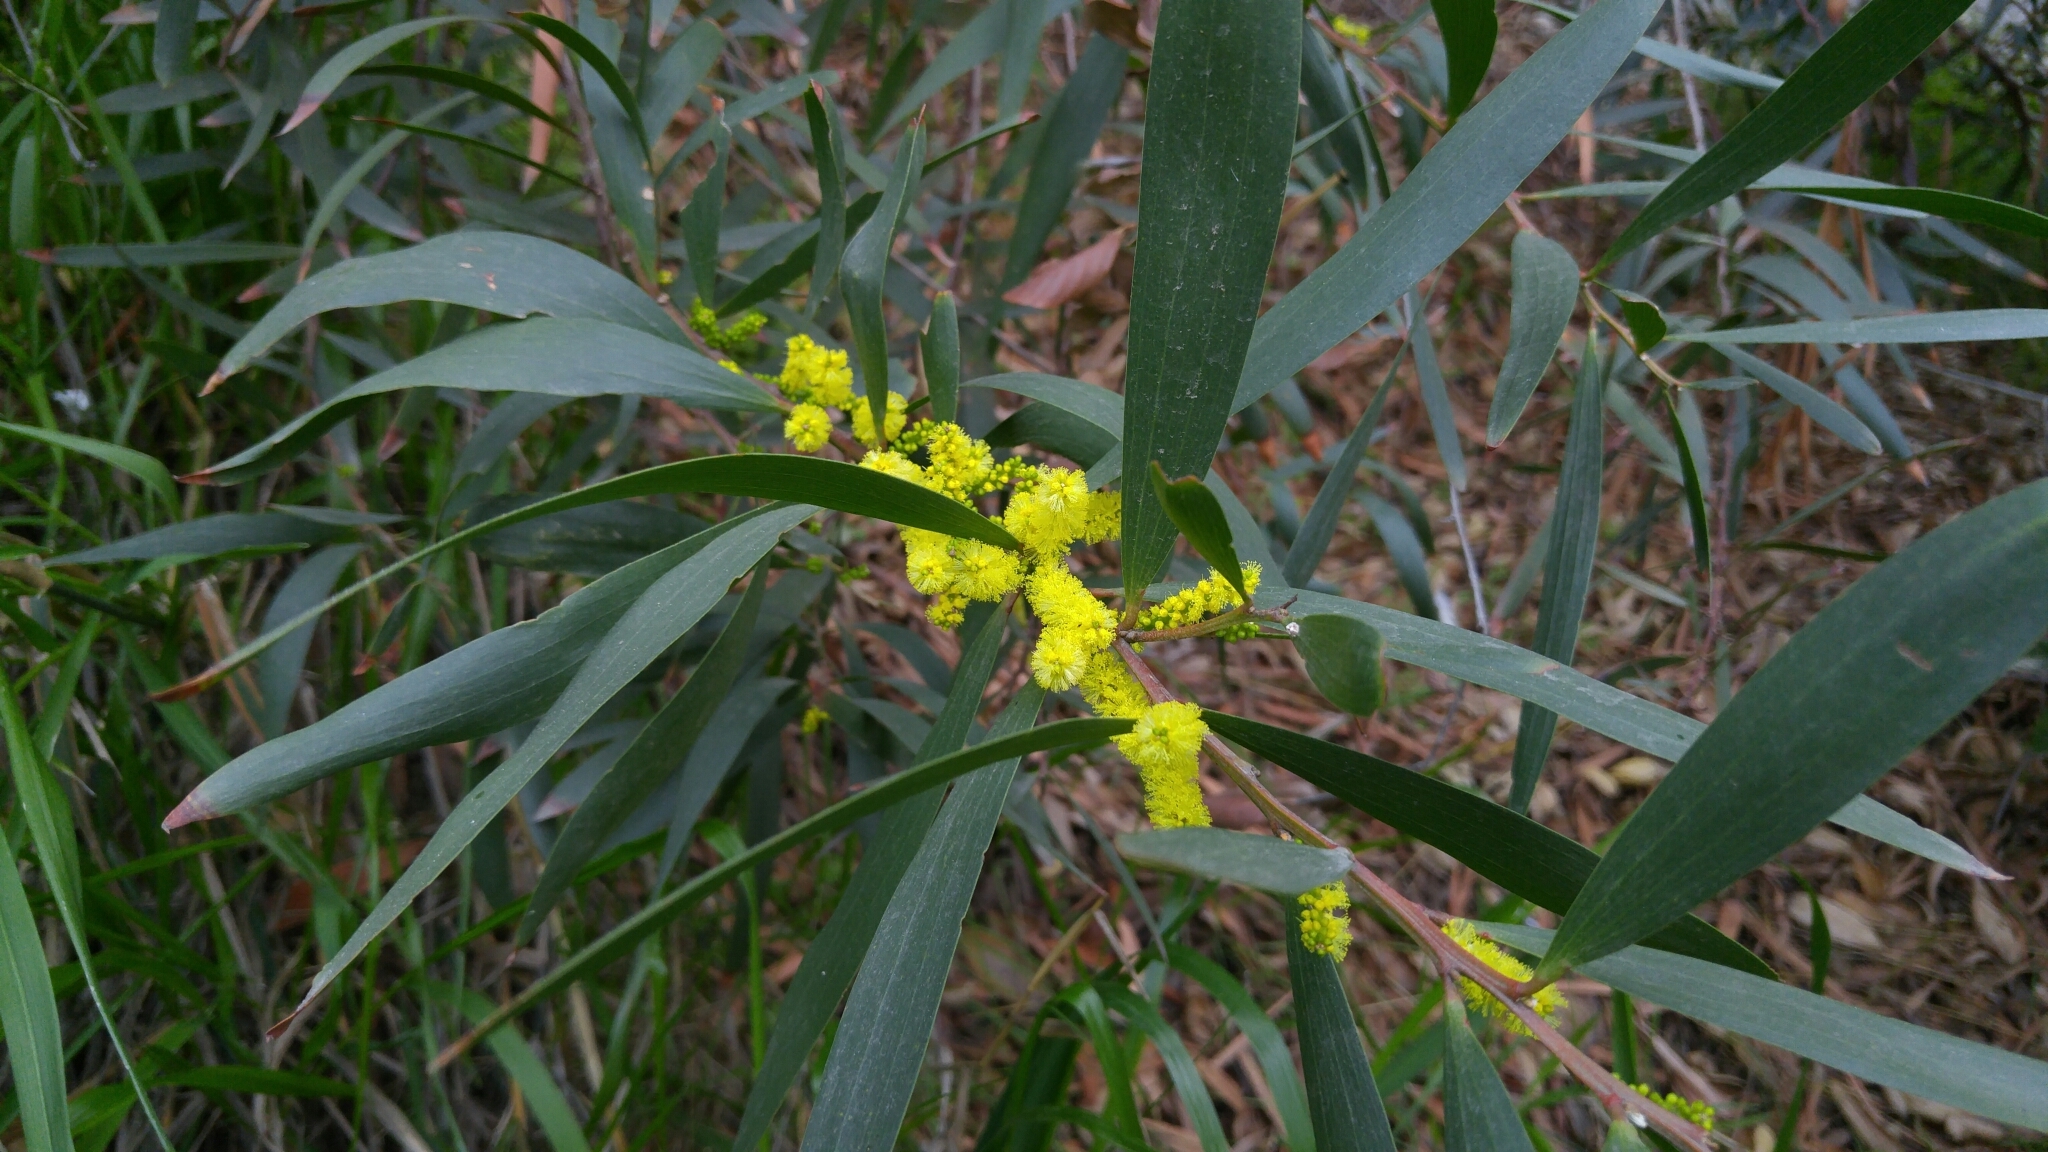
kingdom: Plantae
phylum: Tracheophyta
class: Magnoliopsida
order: Fabales
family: Fabaceae
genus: Acacia
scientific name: Acacia longifolia
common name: Sydney golden wattle
